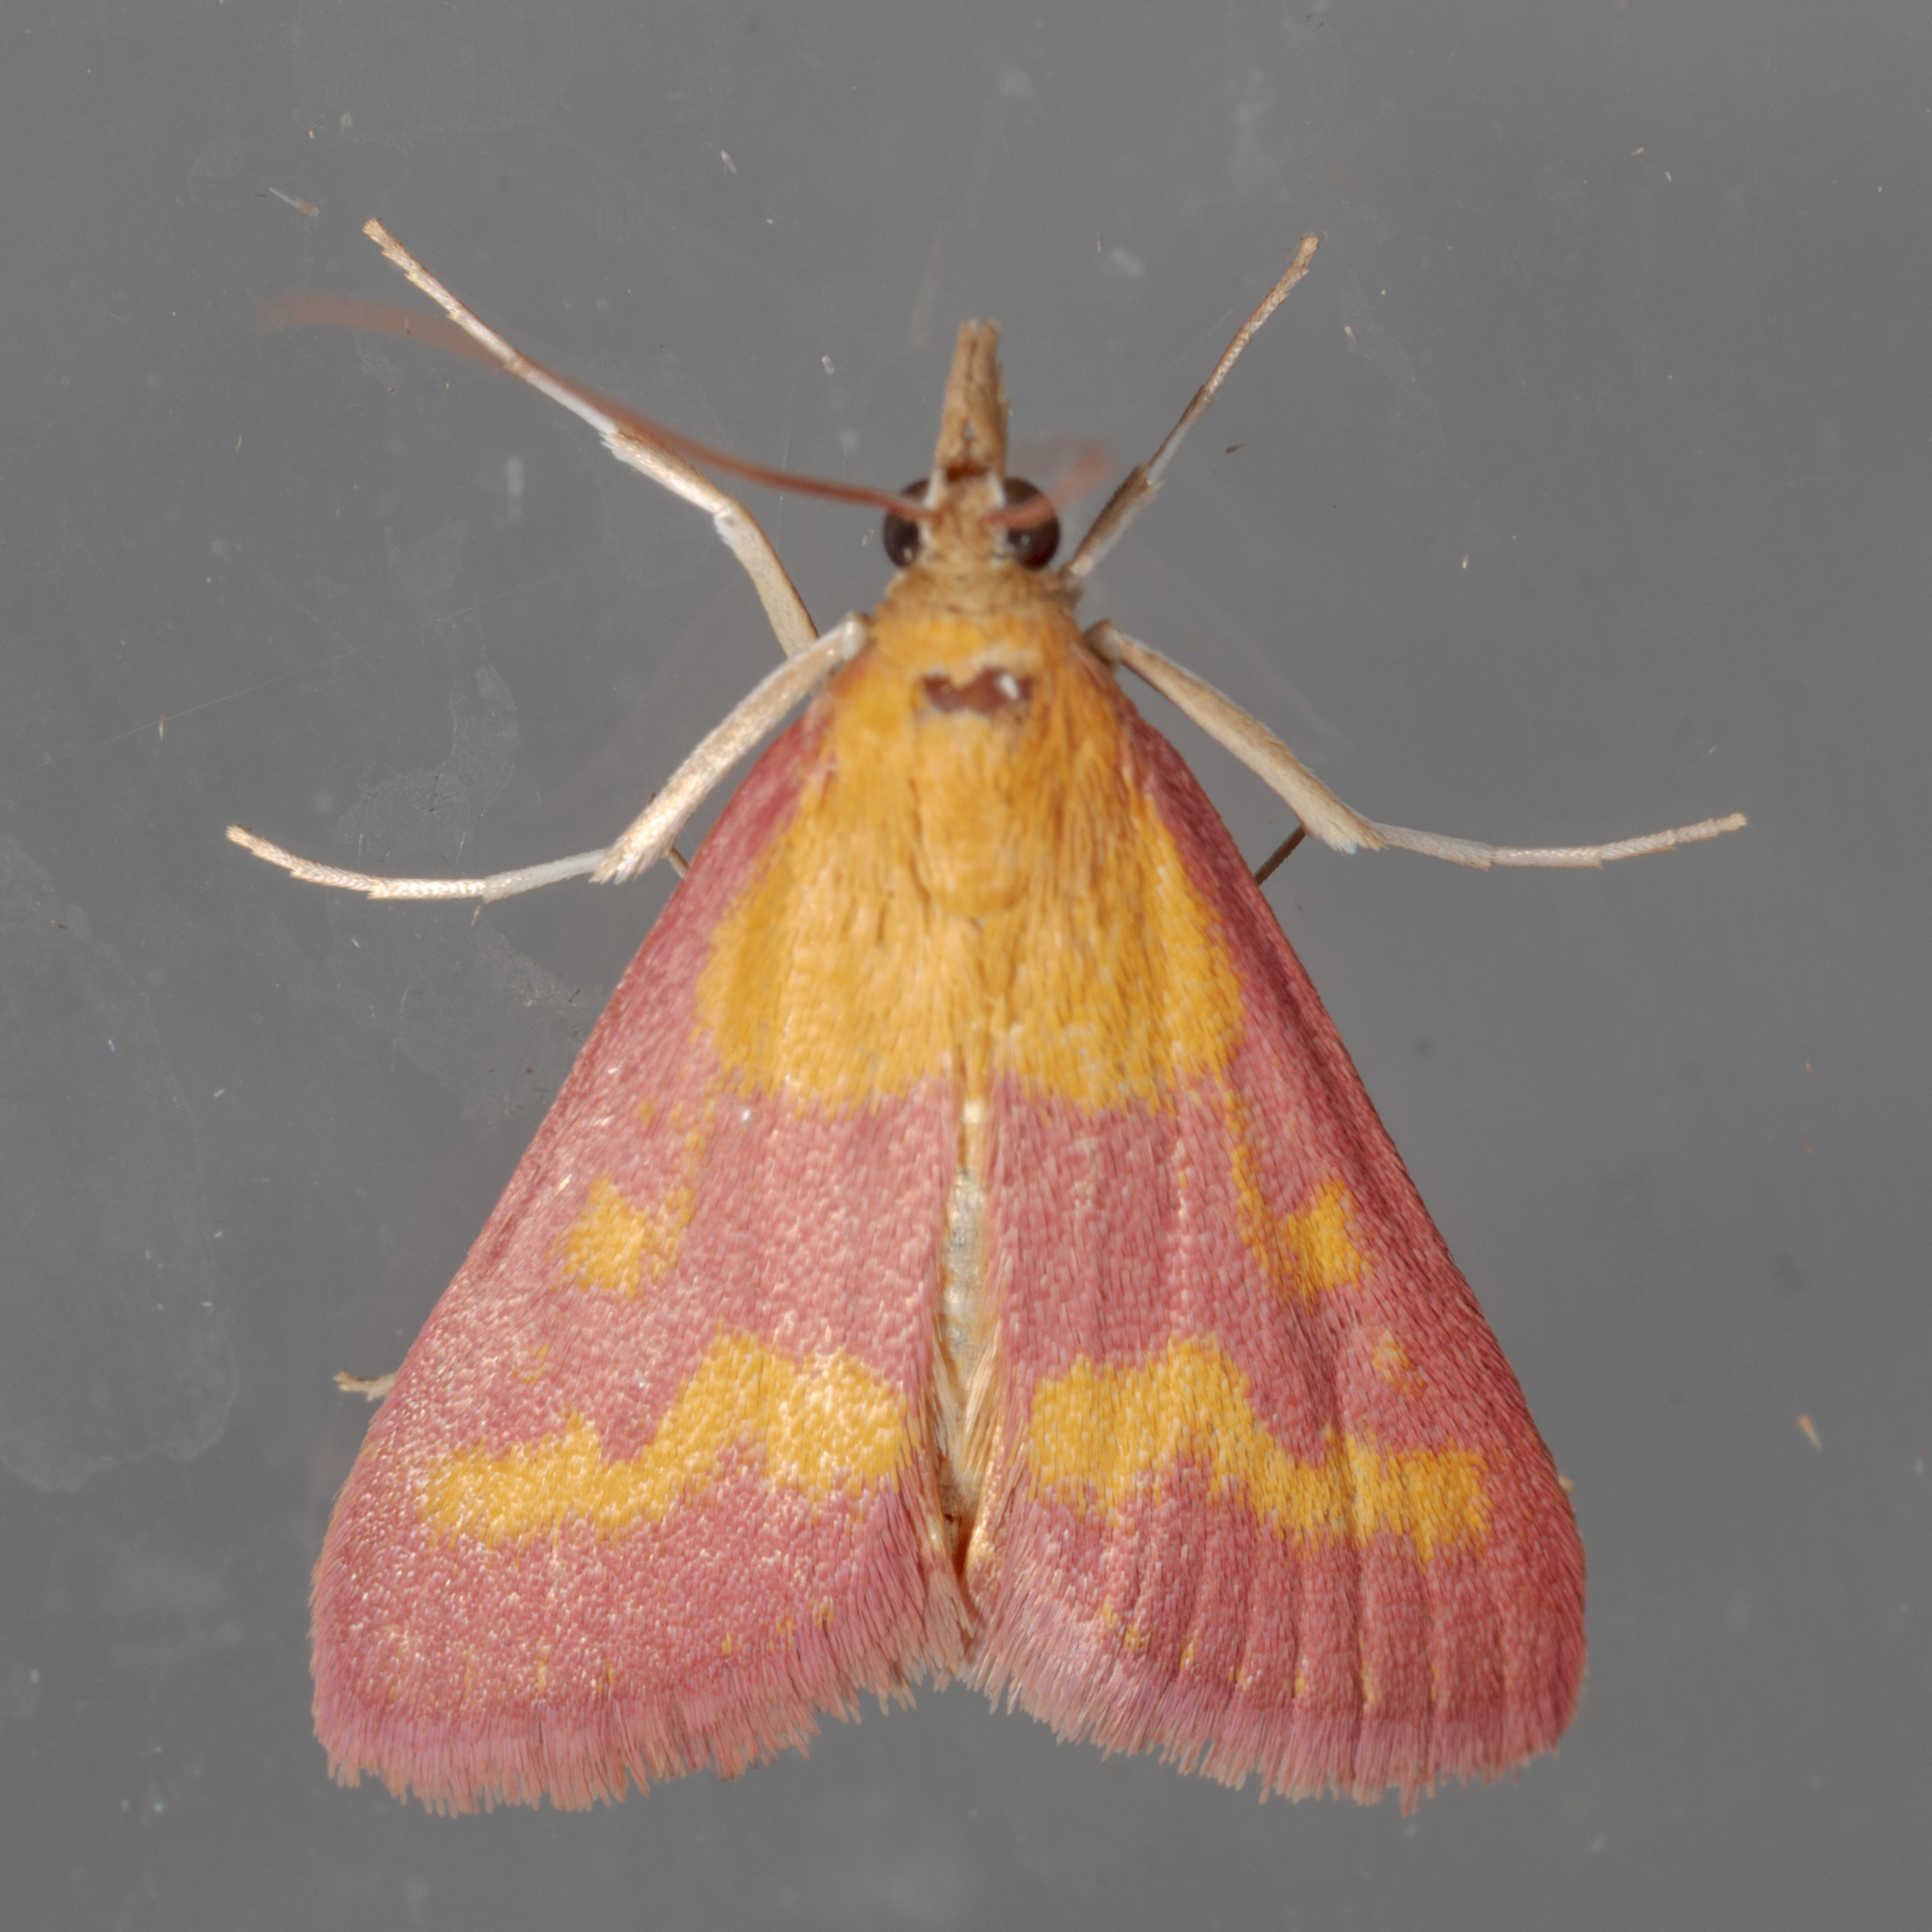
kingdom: Animalia
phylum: Arthropoda
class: Insecta
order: Lepidoptera
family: Crambidae
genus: Pyrausta
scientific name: Pyrausta laticlavia
